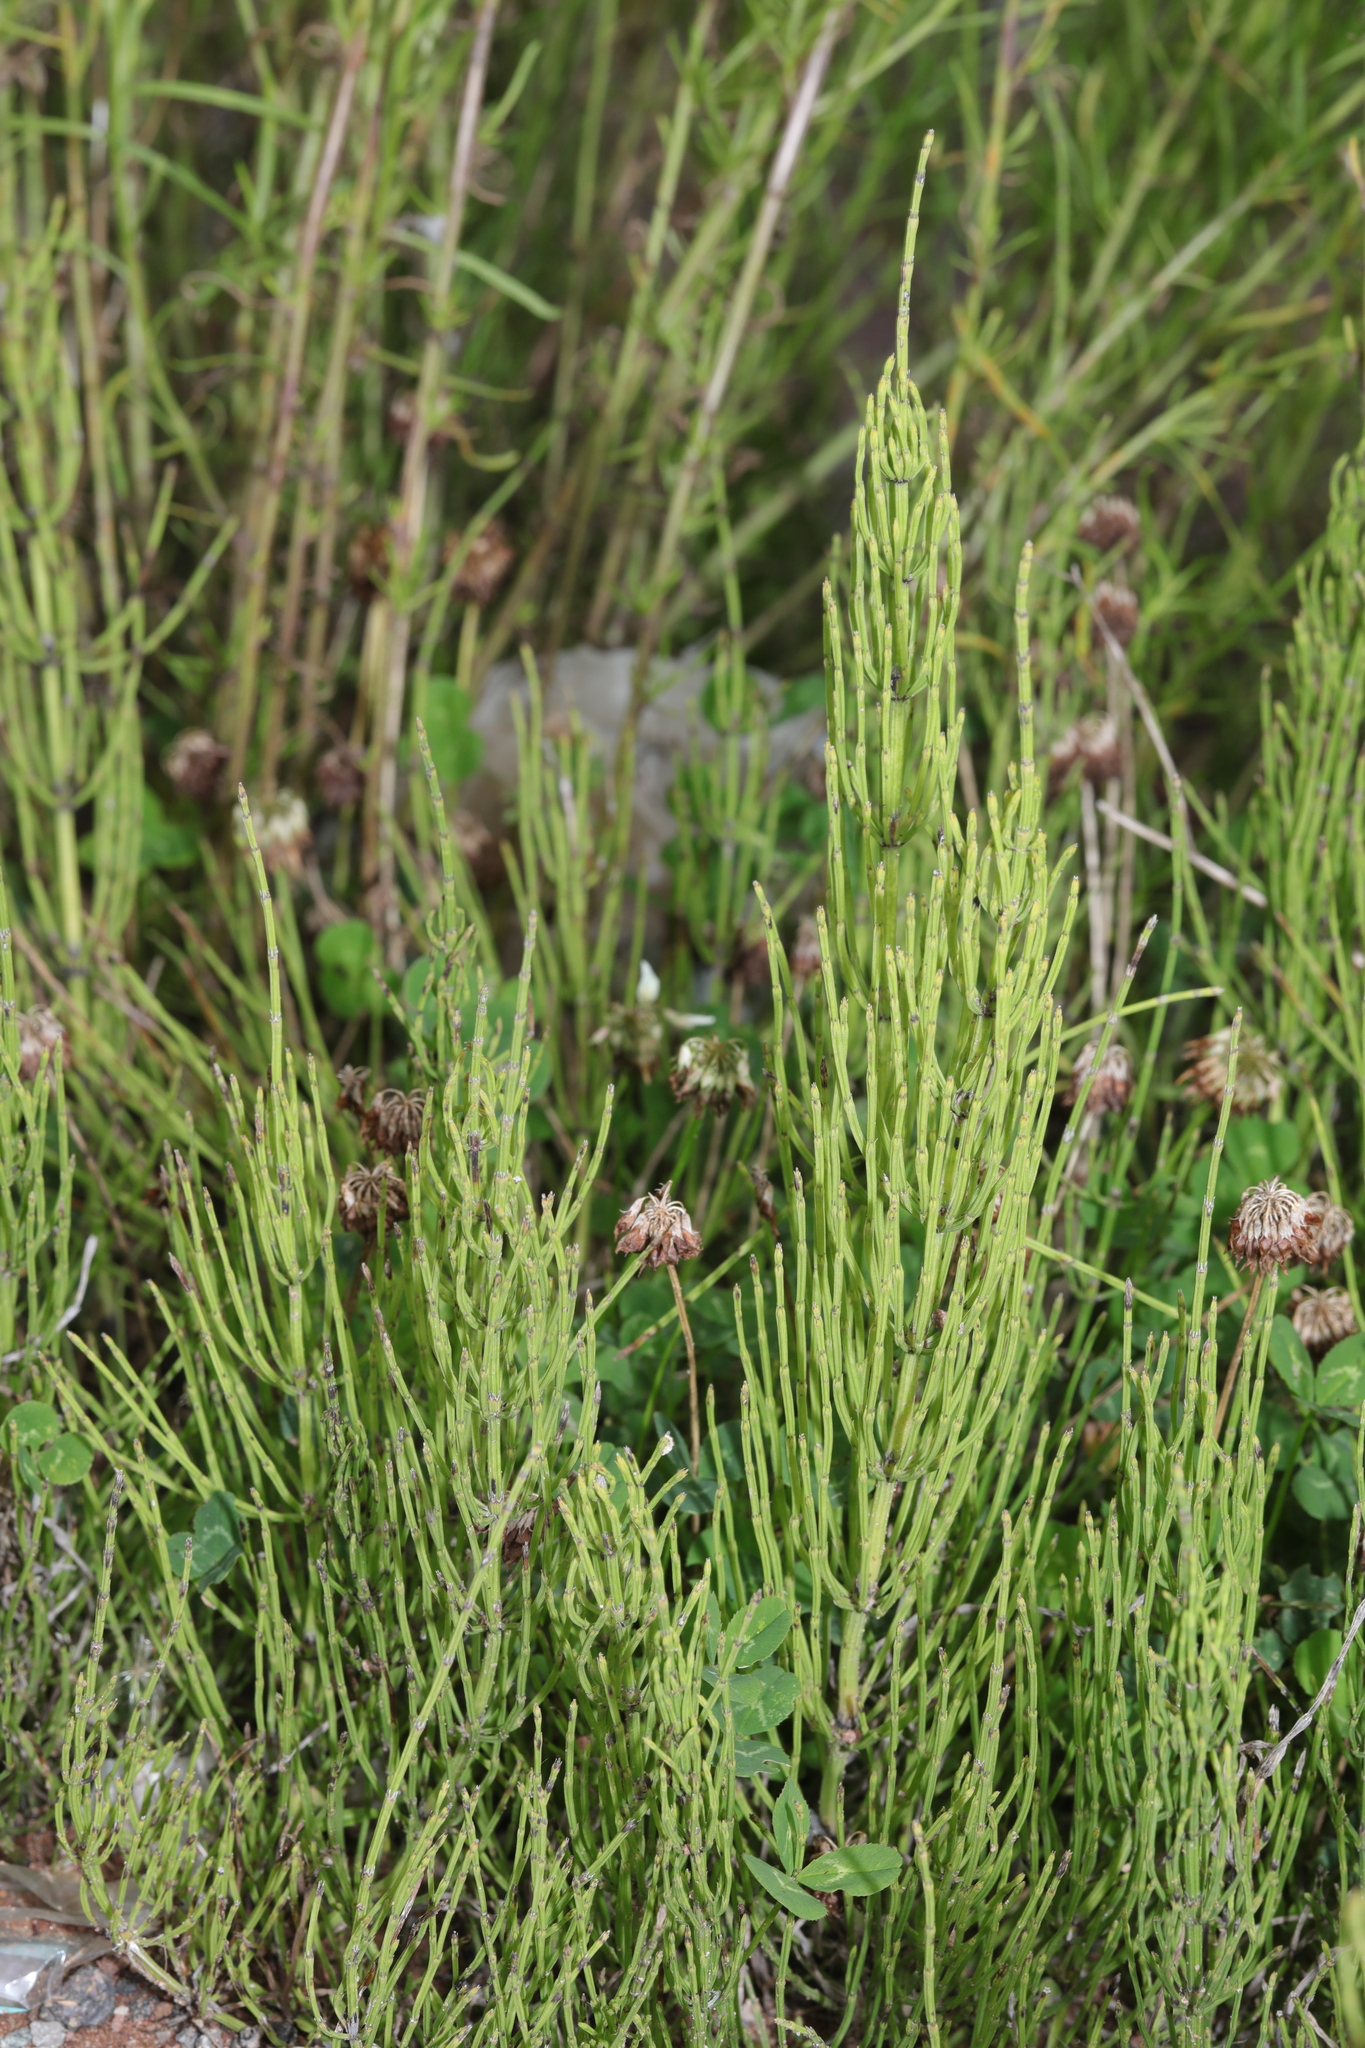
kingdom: Plantae
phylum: Tracheophyta
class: Polypodiopsida
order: Equisetales
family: Equisetaceae
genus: Equisetum
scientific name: Equisetum arvense
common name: Field horsetail
